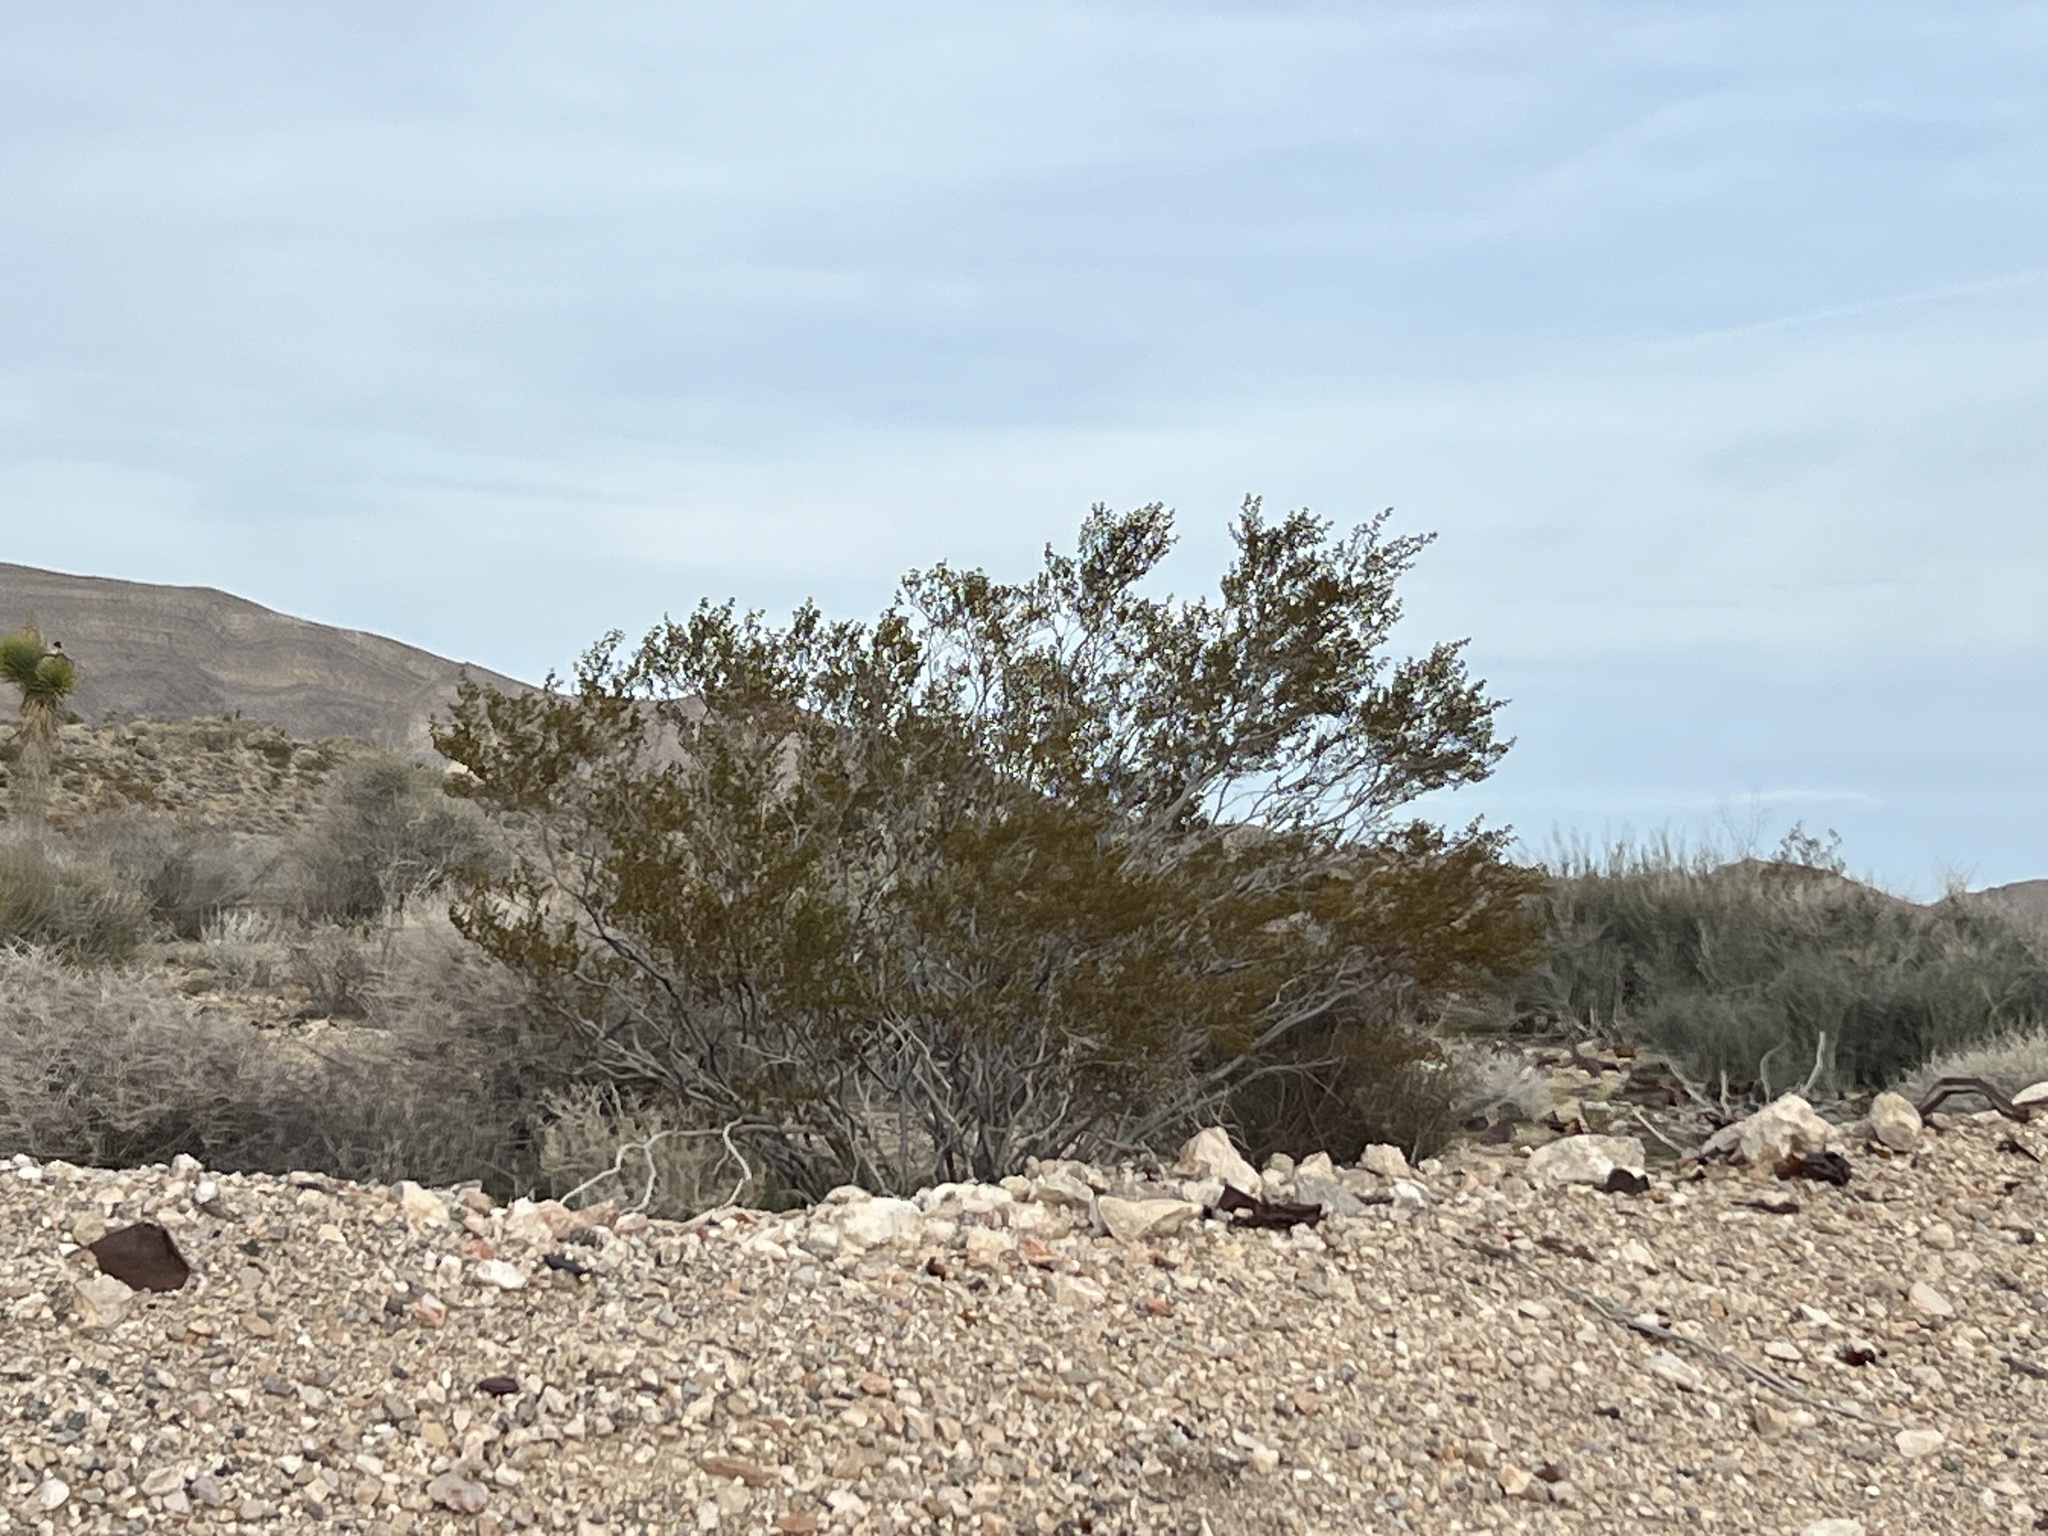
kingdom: Plantae
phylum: Tracheophyta
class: Magnoliopsida
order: Zygophyllales
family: Zygophyllaceae
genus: Larrea
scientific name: Larrea tridentata
